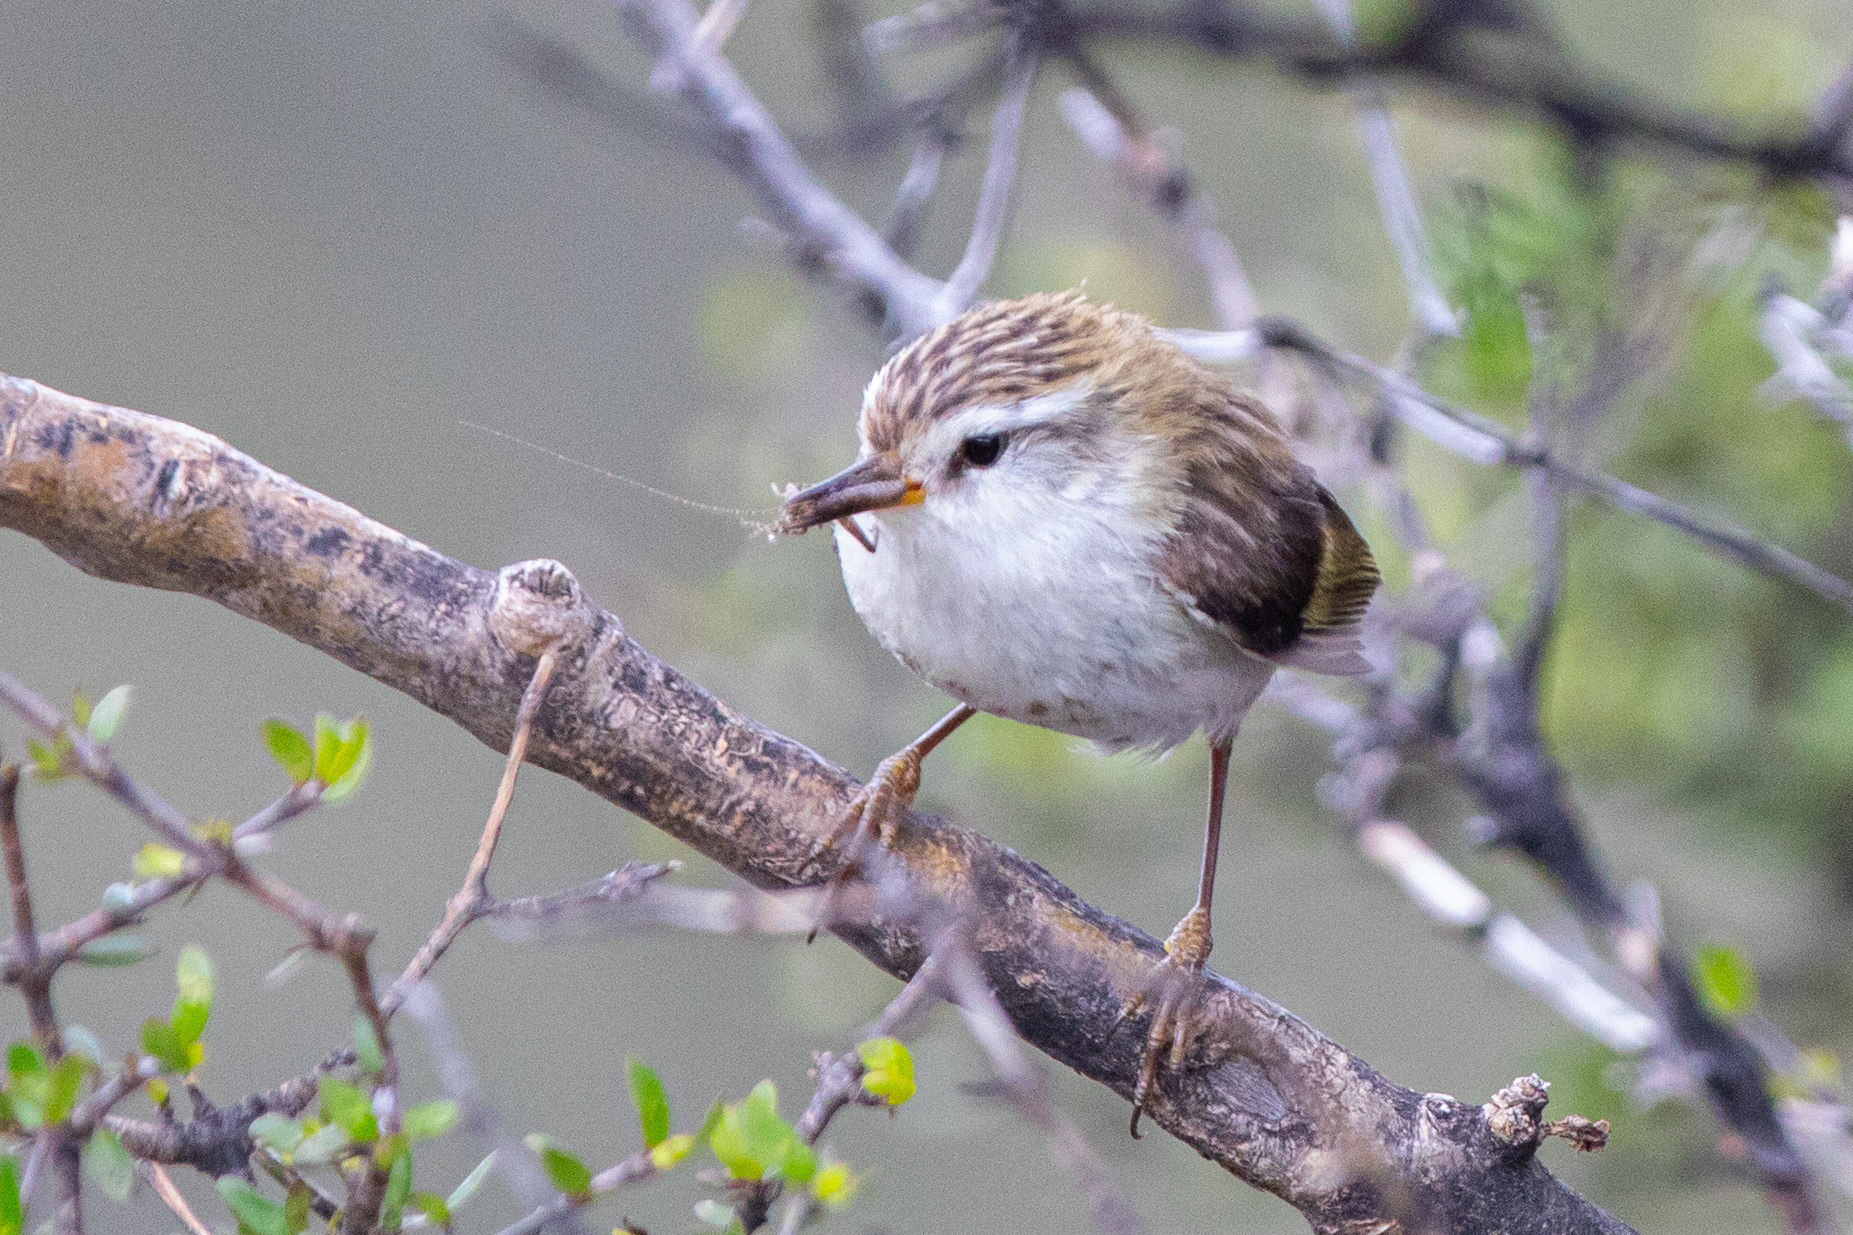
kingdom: Animalia
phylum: Chordata
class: Aves
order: Passeriformes
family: Acanthisittidae
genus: Acanthisitta
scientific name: Acanthisitta chloris
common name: Rifleman
